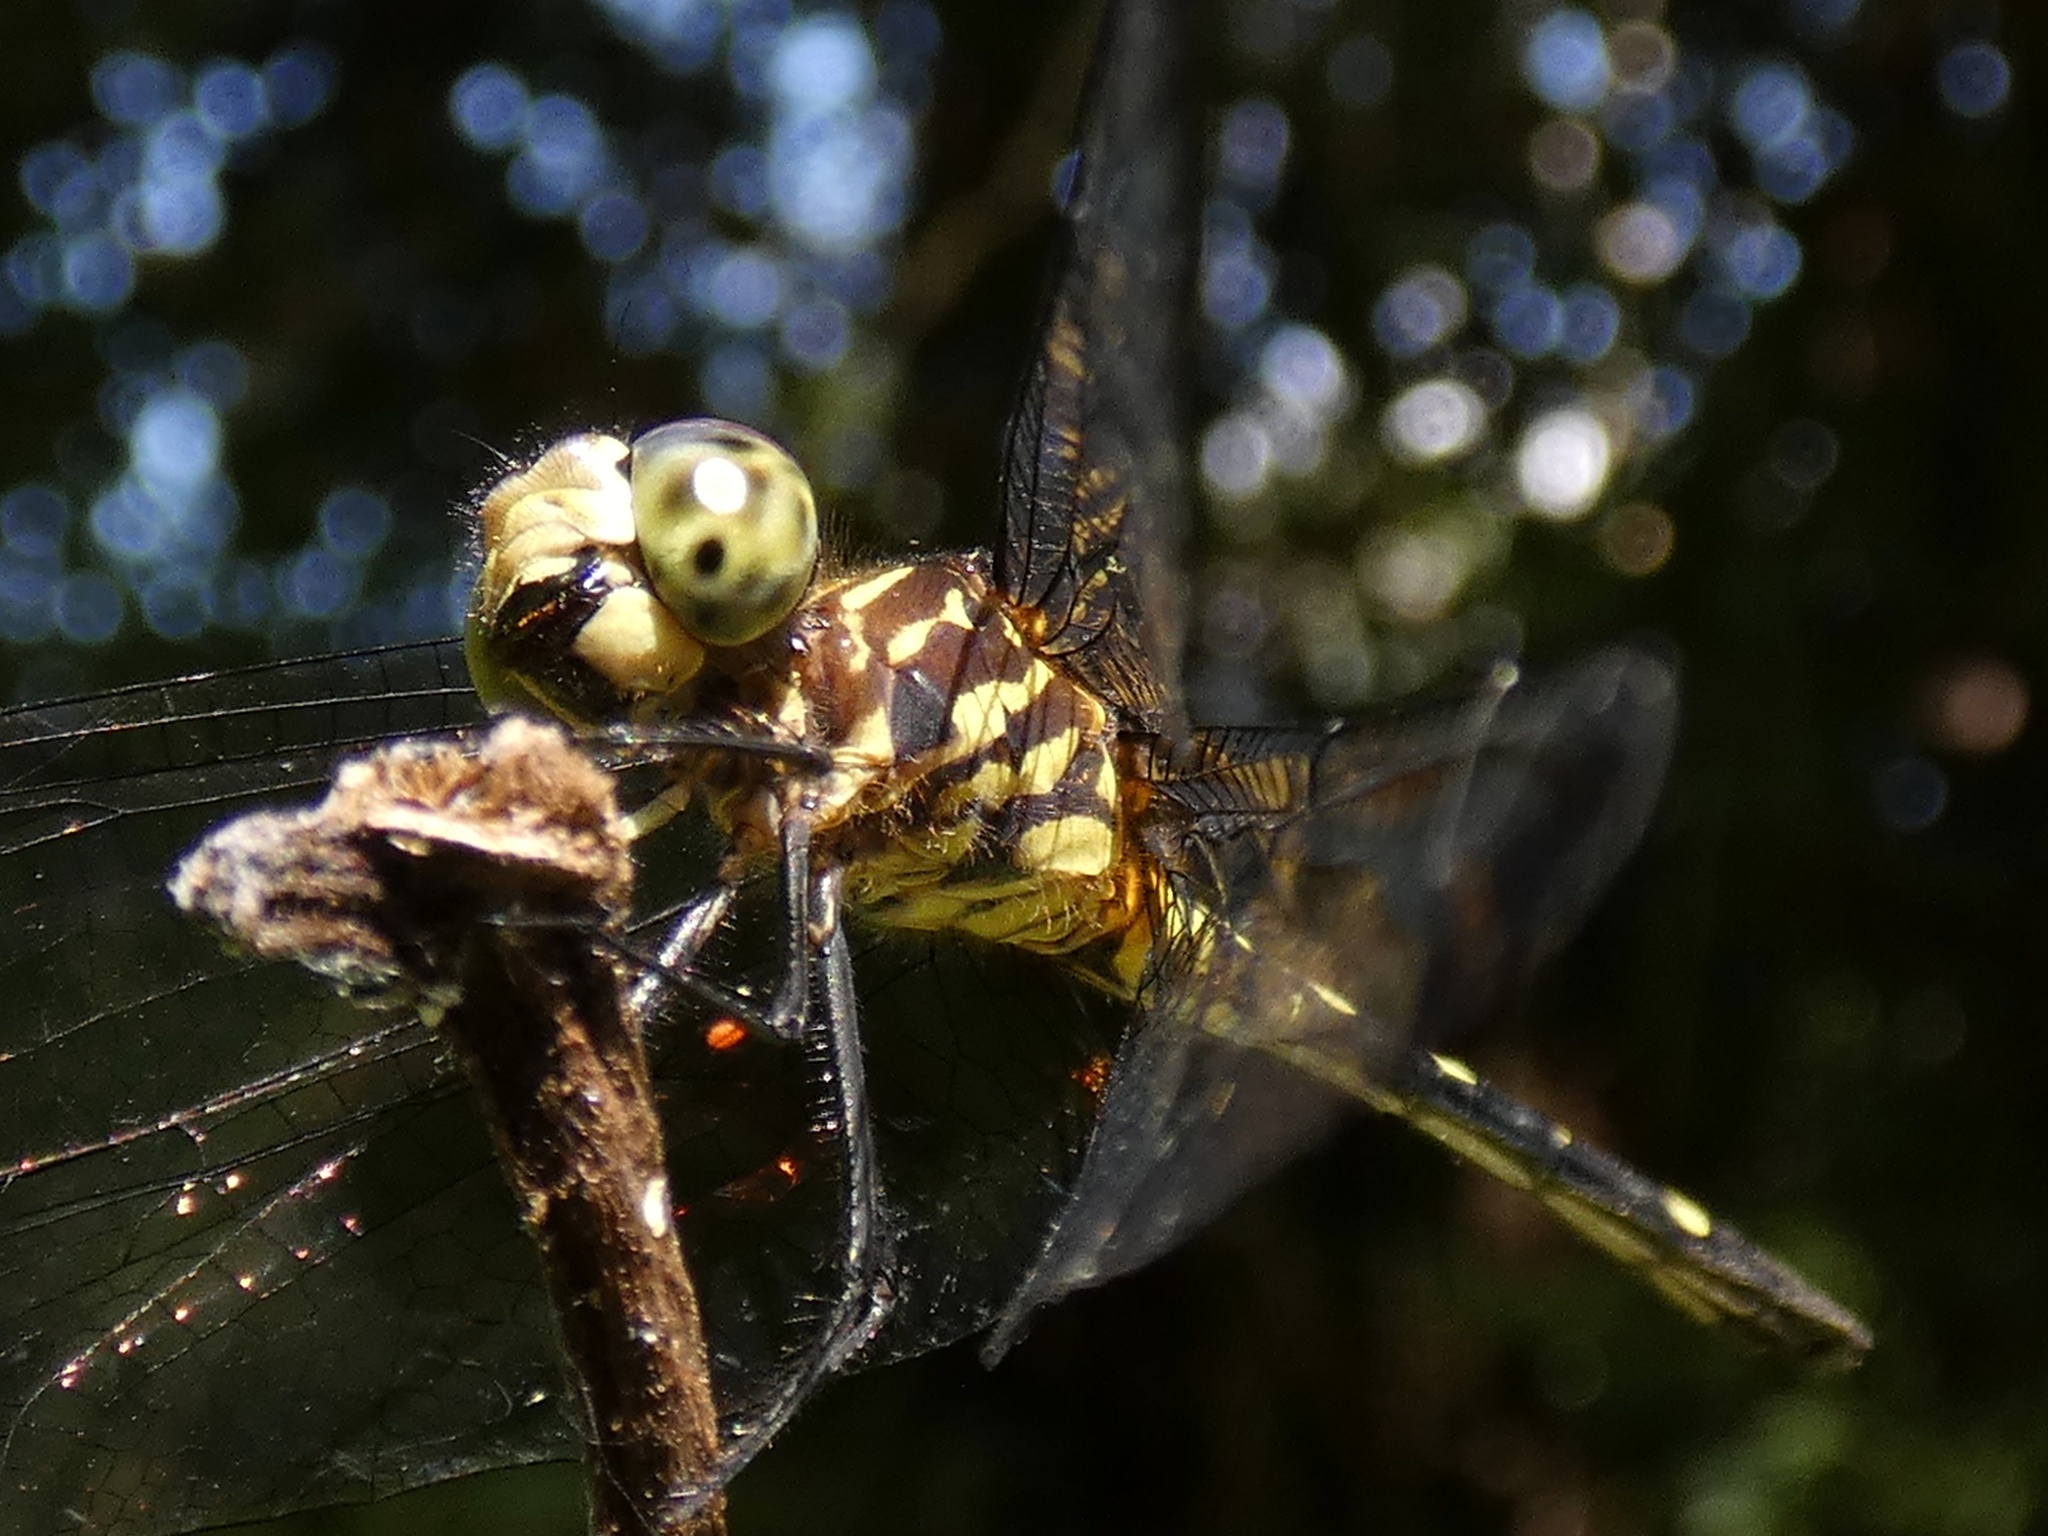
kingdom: Animalia
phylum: Arthropoda
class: Insecta
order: Odonata
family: Libellulidae
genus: Dythemis
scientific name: Dythemis nigra
